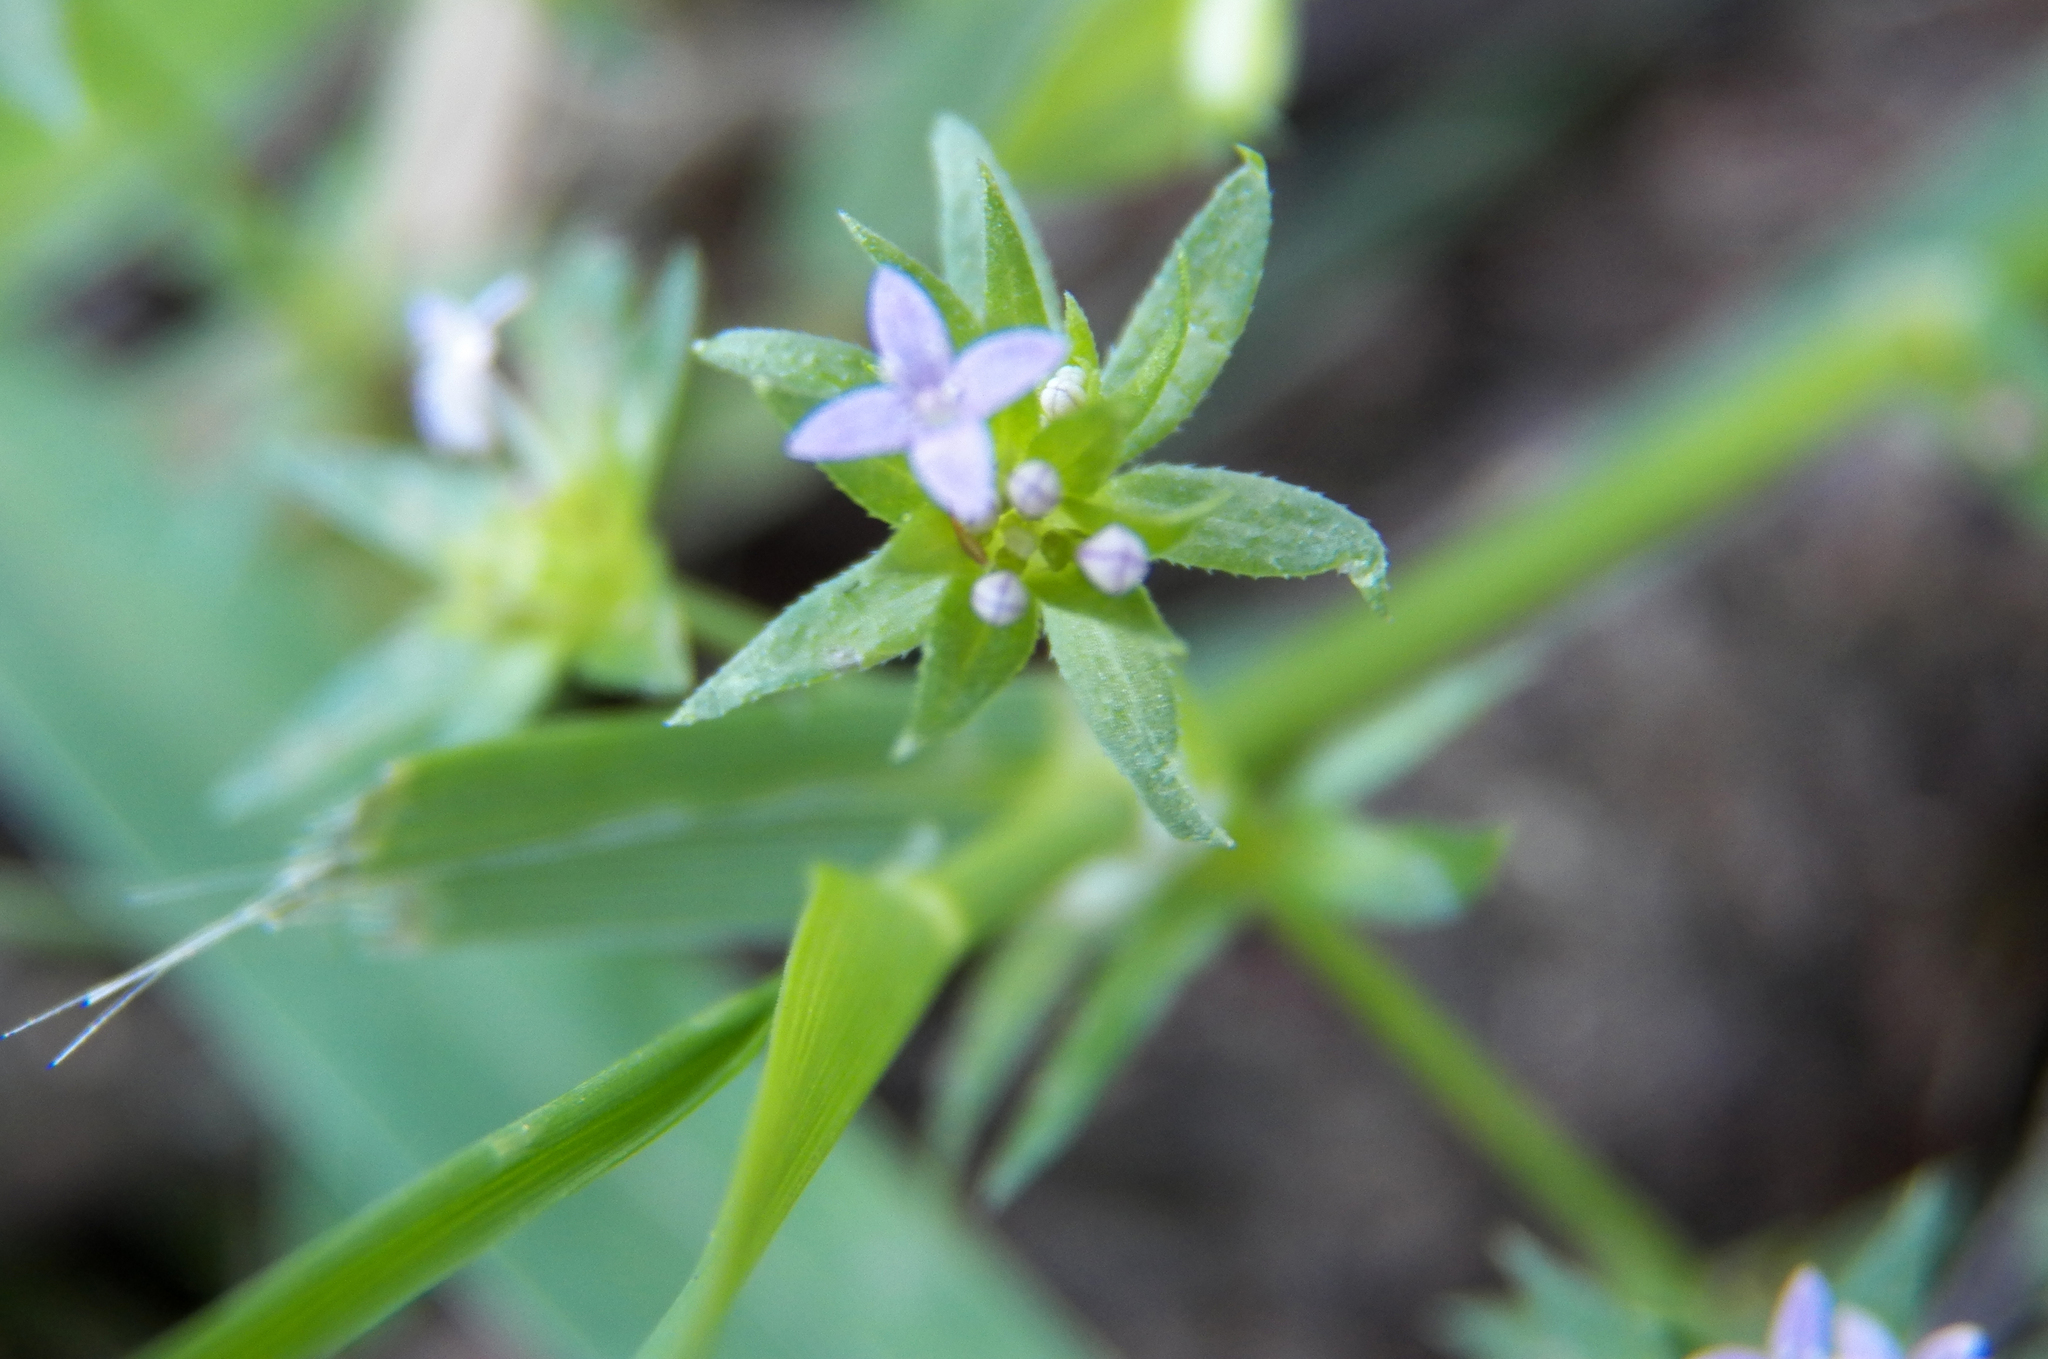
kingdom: Plantae
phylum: Tracheophyta
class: Magnoliopsida
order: Gentianales
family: Rubiaceae
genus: Sherardia
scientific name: Sherardia arvensis
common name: Field madder
